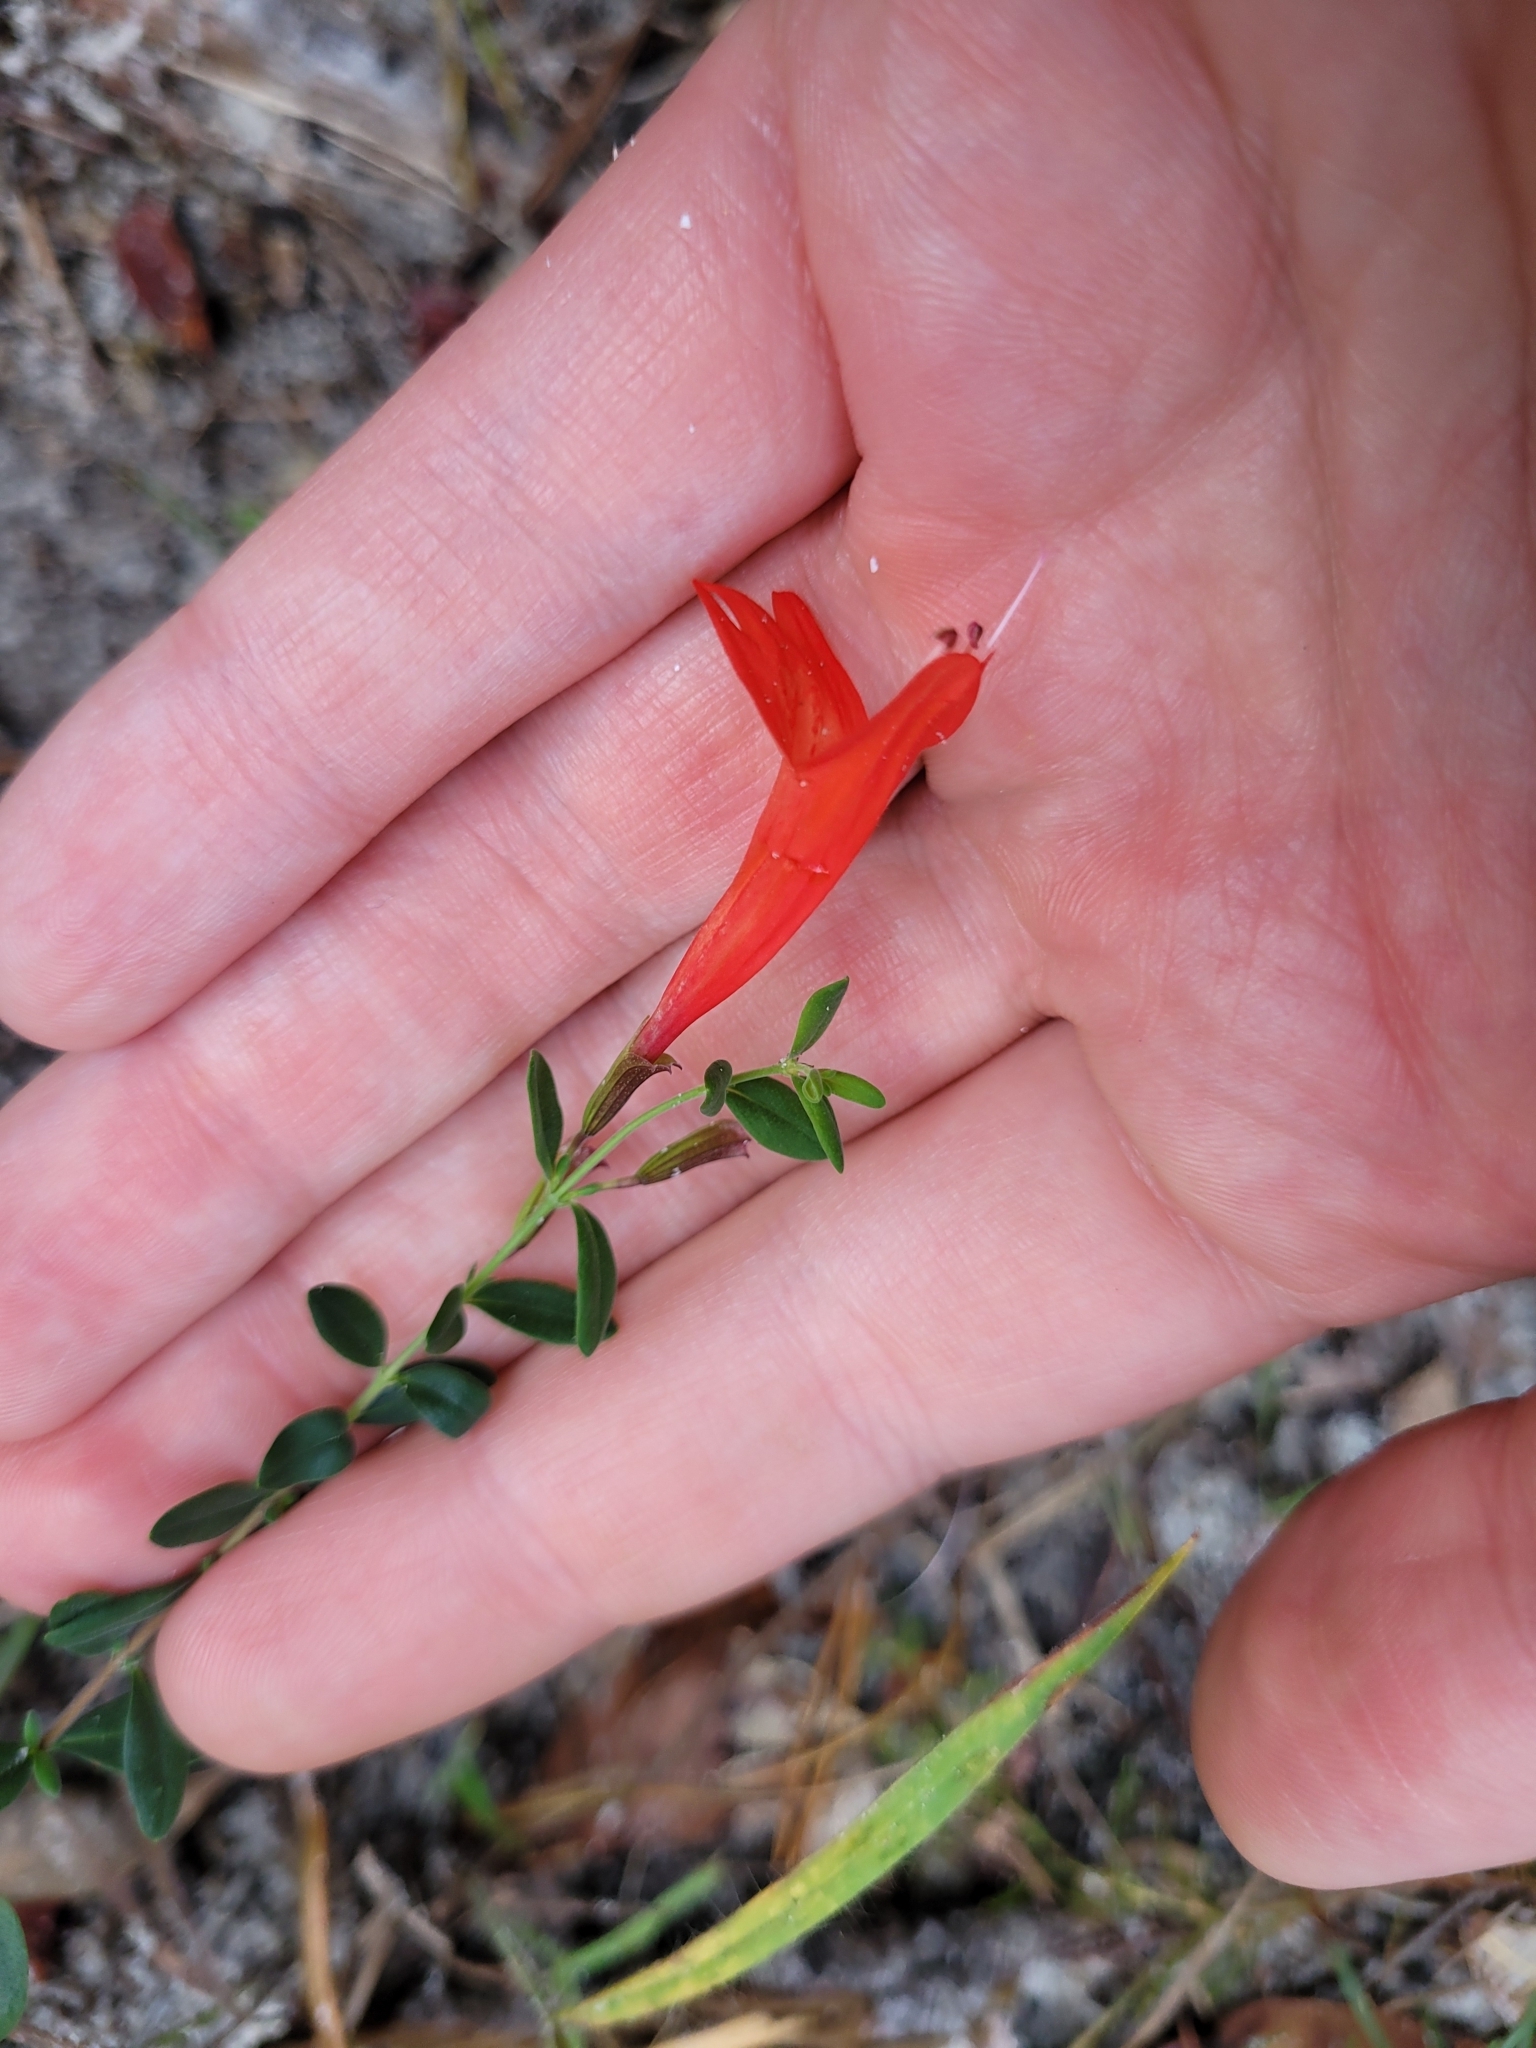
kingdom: Plantae
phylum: Tracheophyta
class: Magnoliopsida
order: Lamiales
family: Lamiaceae
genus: Clinopodium
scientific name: Clinopodium coccineum
